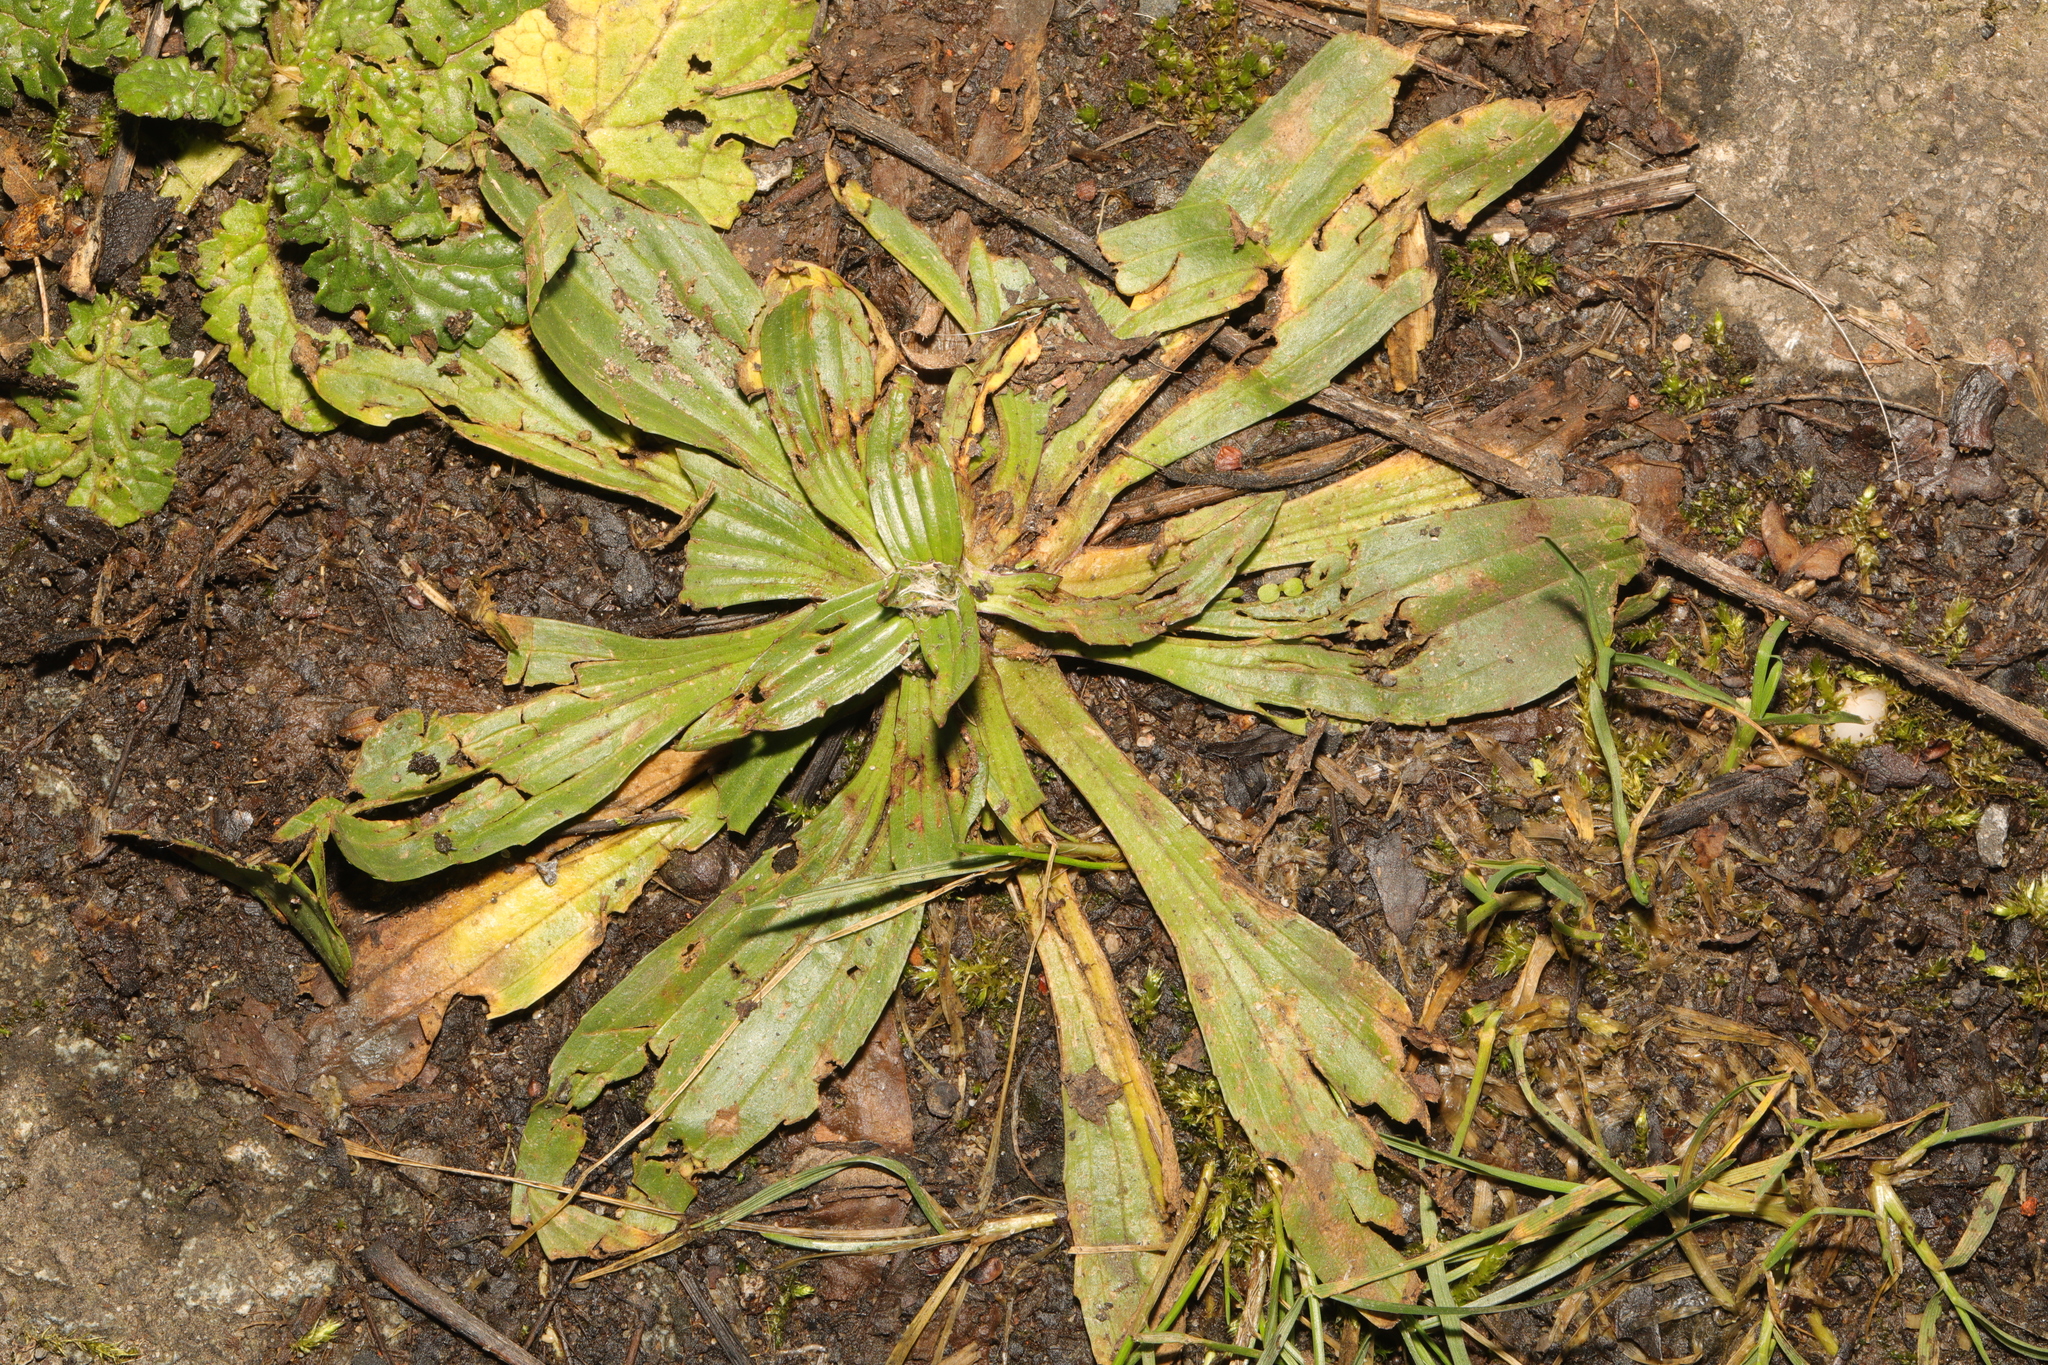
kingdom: Plantae
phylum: Tracheophyta
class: Magnoliopsida
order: Lamiales
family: Plantaginaceae
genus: Plantago
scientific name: Plantago lanceolata
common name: Ribwort plantain
